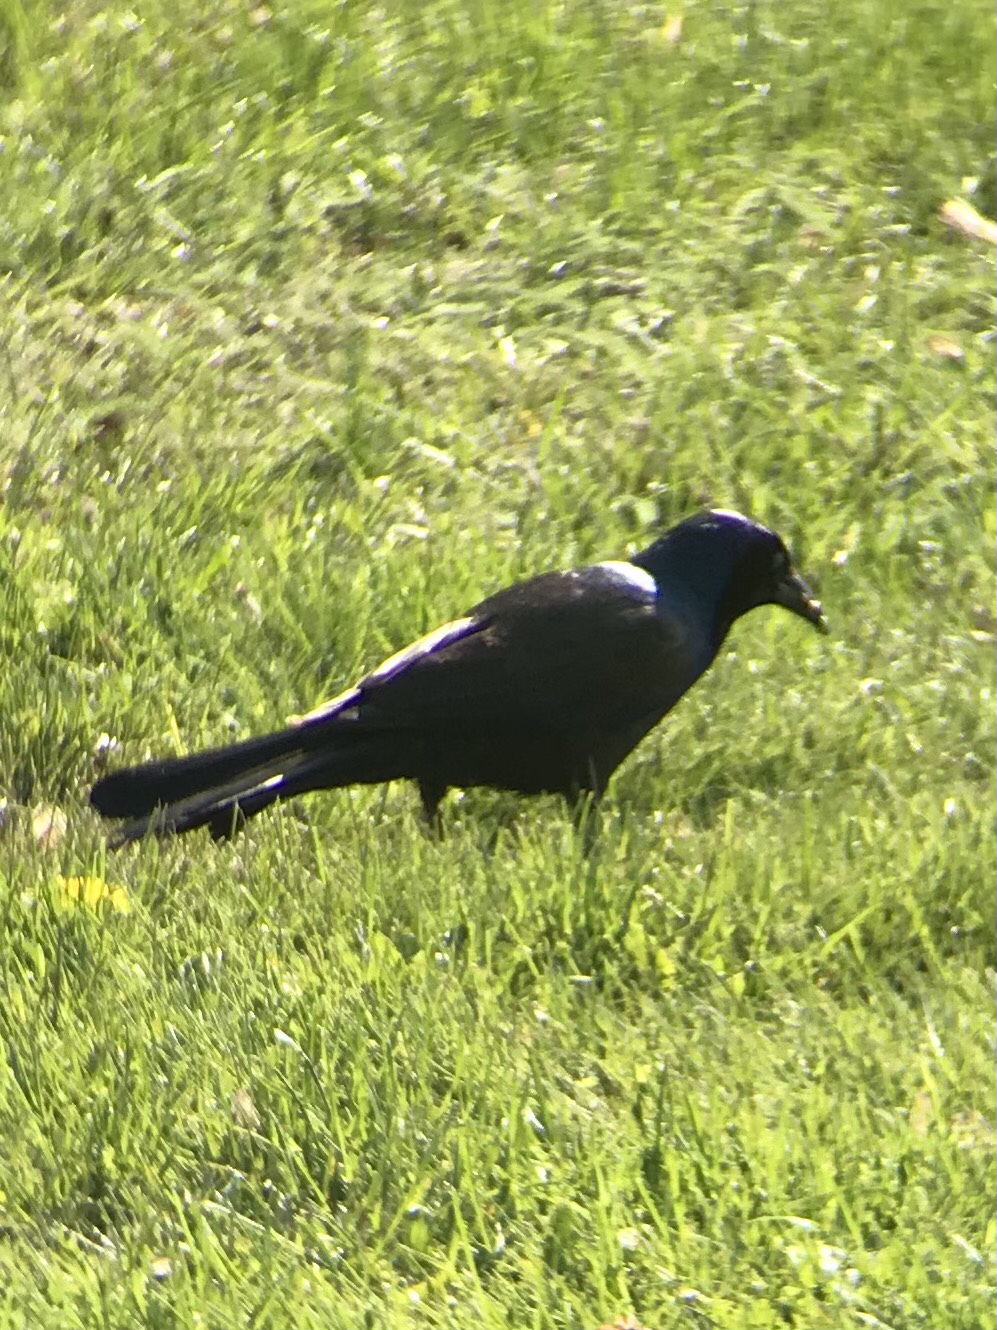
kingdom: Animalia
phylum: Chordata
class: Aves
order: Passeriformes
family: Icteridae
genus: Quiscalus
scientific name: Quiscalus quiscula
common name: Common grackle
